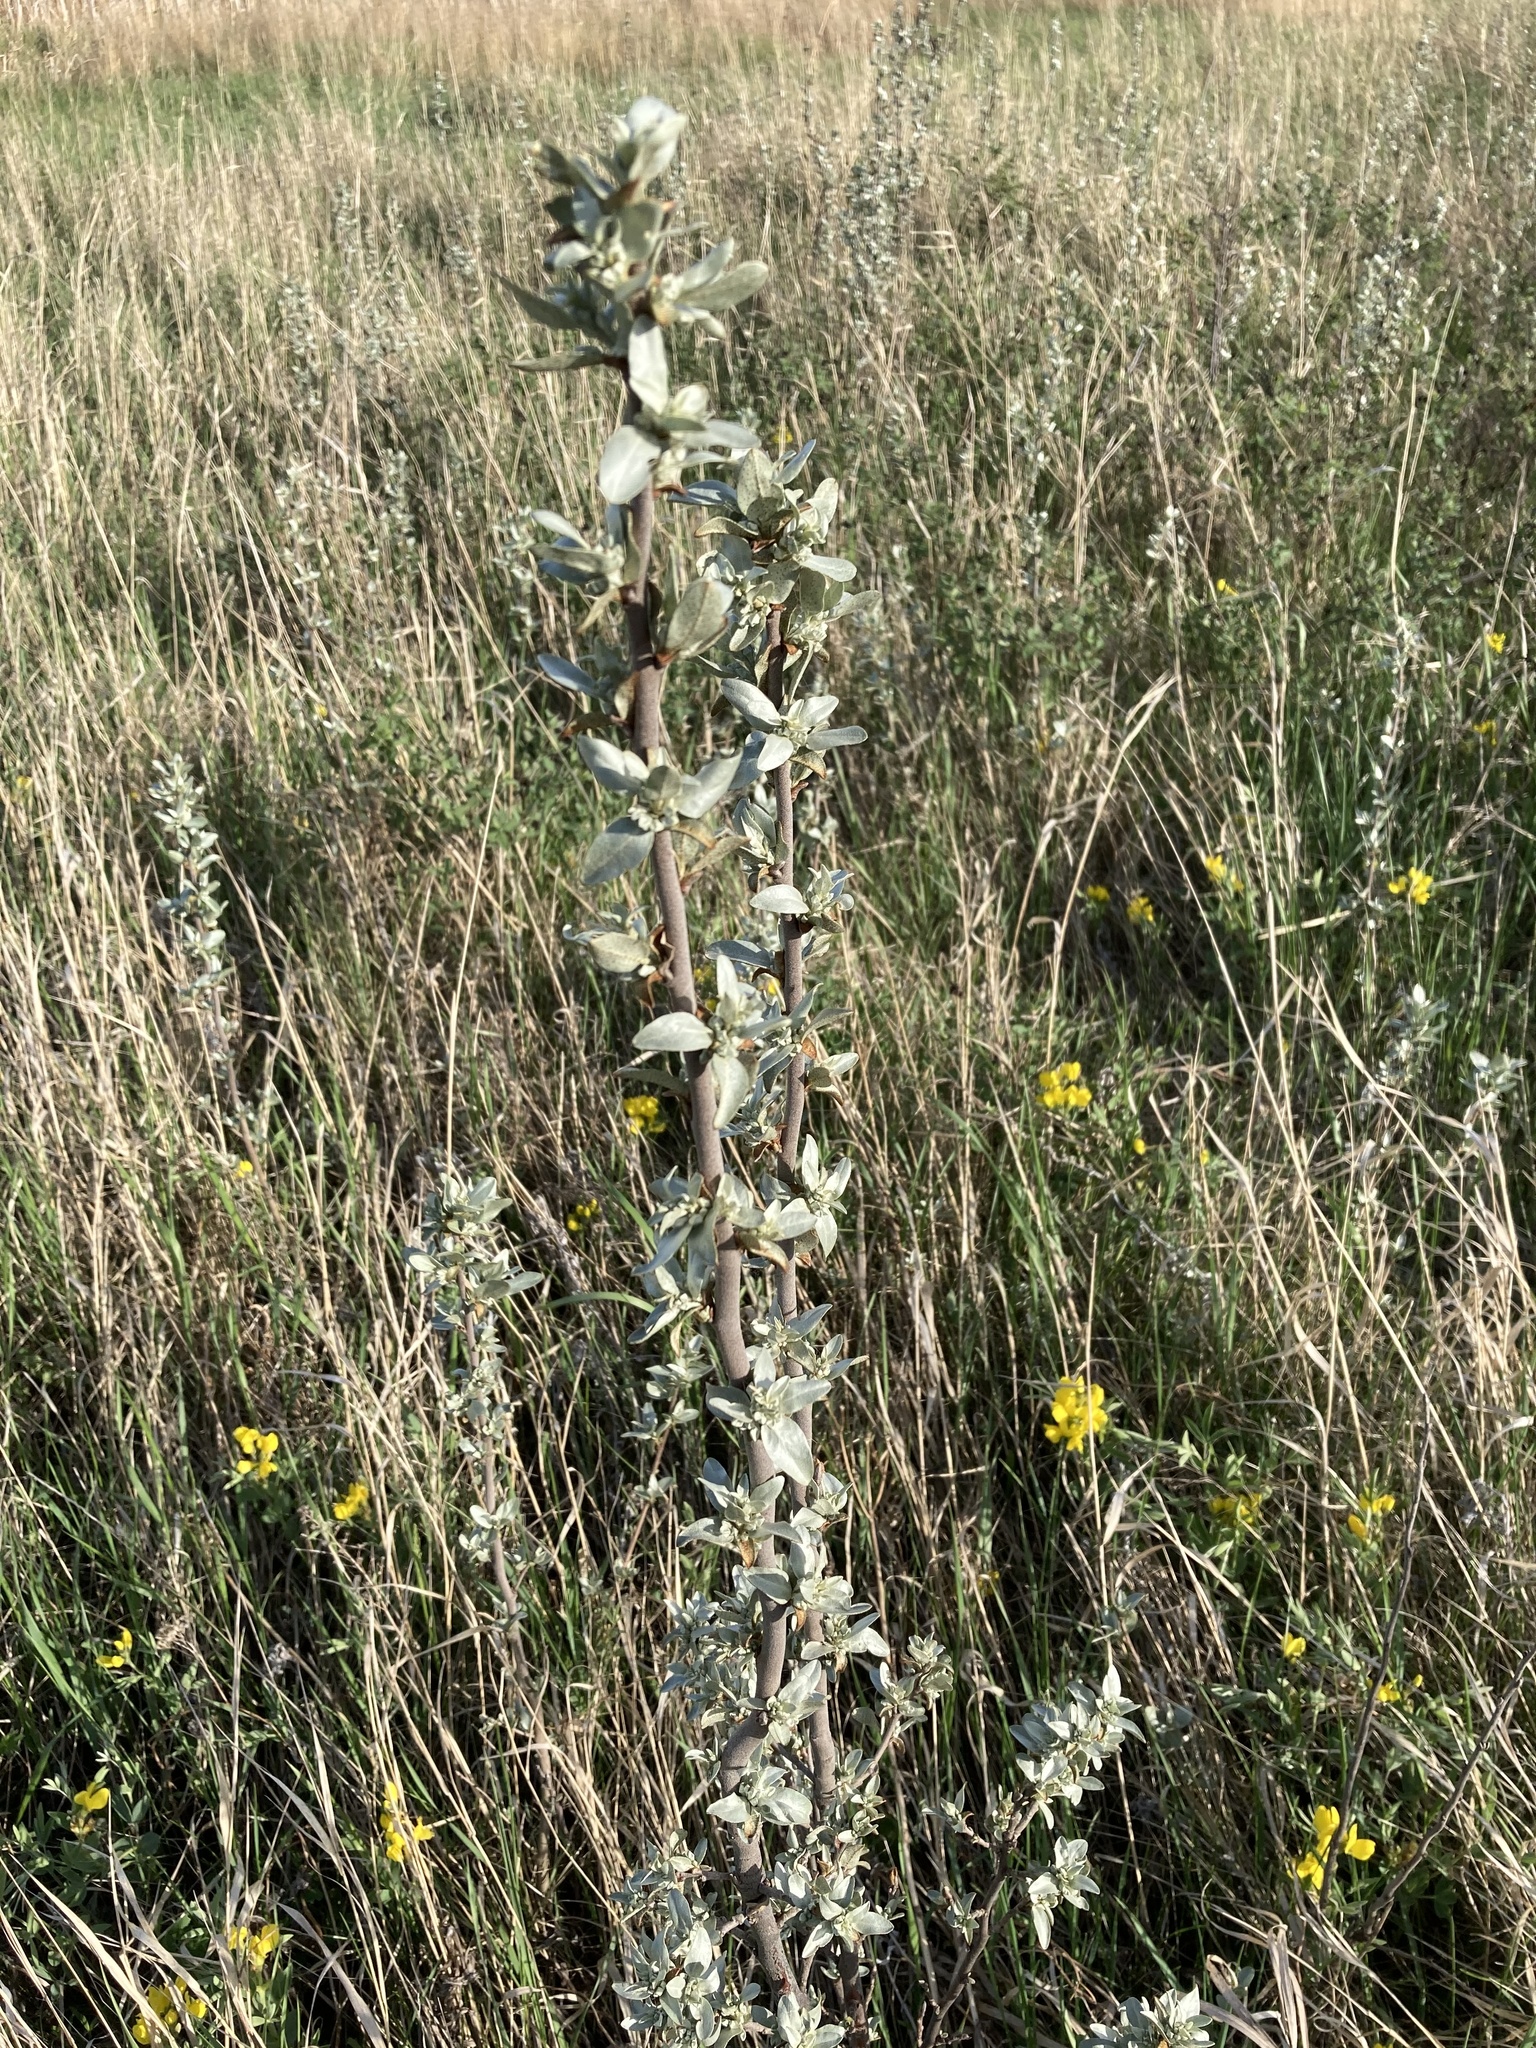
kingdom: Plantae
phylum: Tracheophyta
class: Magnoliopsida
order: Rosales
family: Elaeagnaceae
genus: Elaeagnus
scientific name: Elaeagnus commutata
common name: Silverberry
